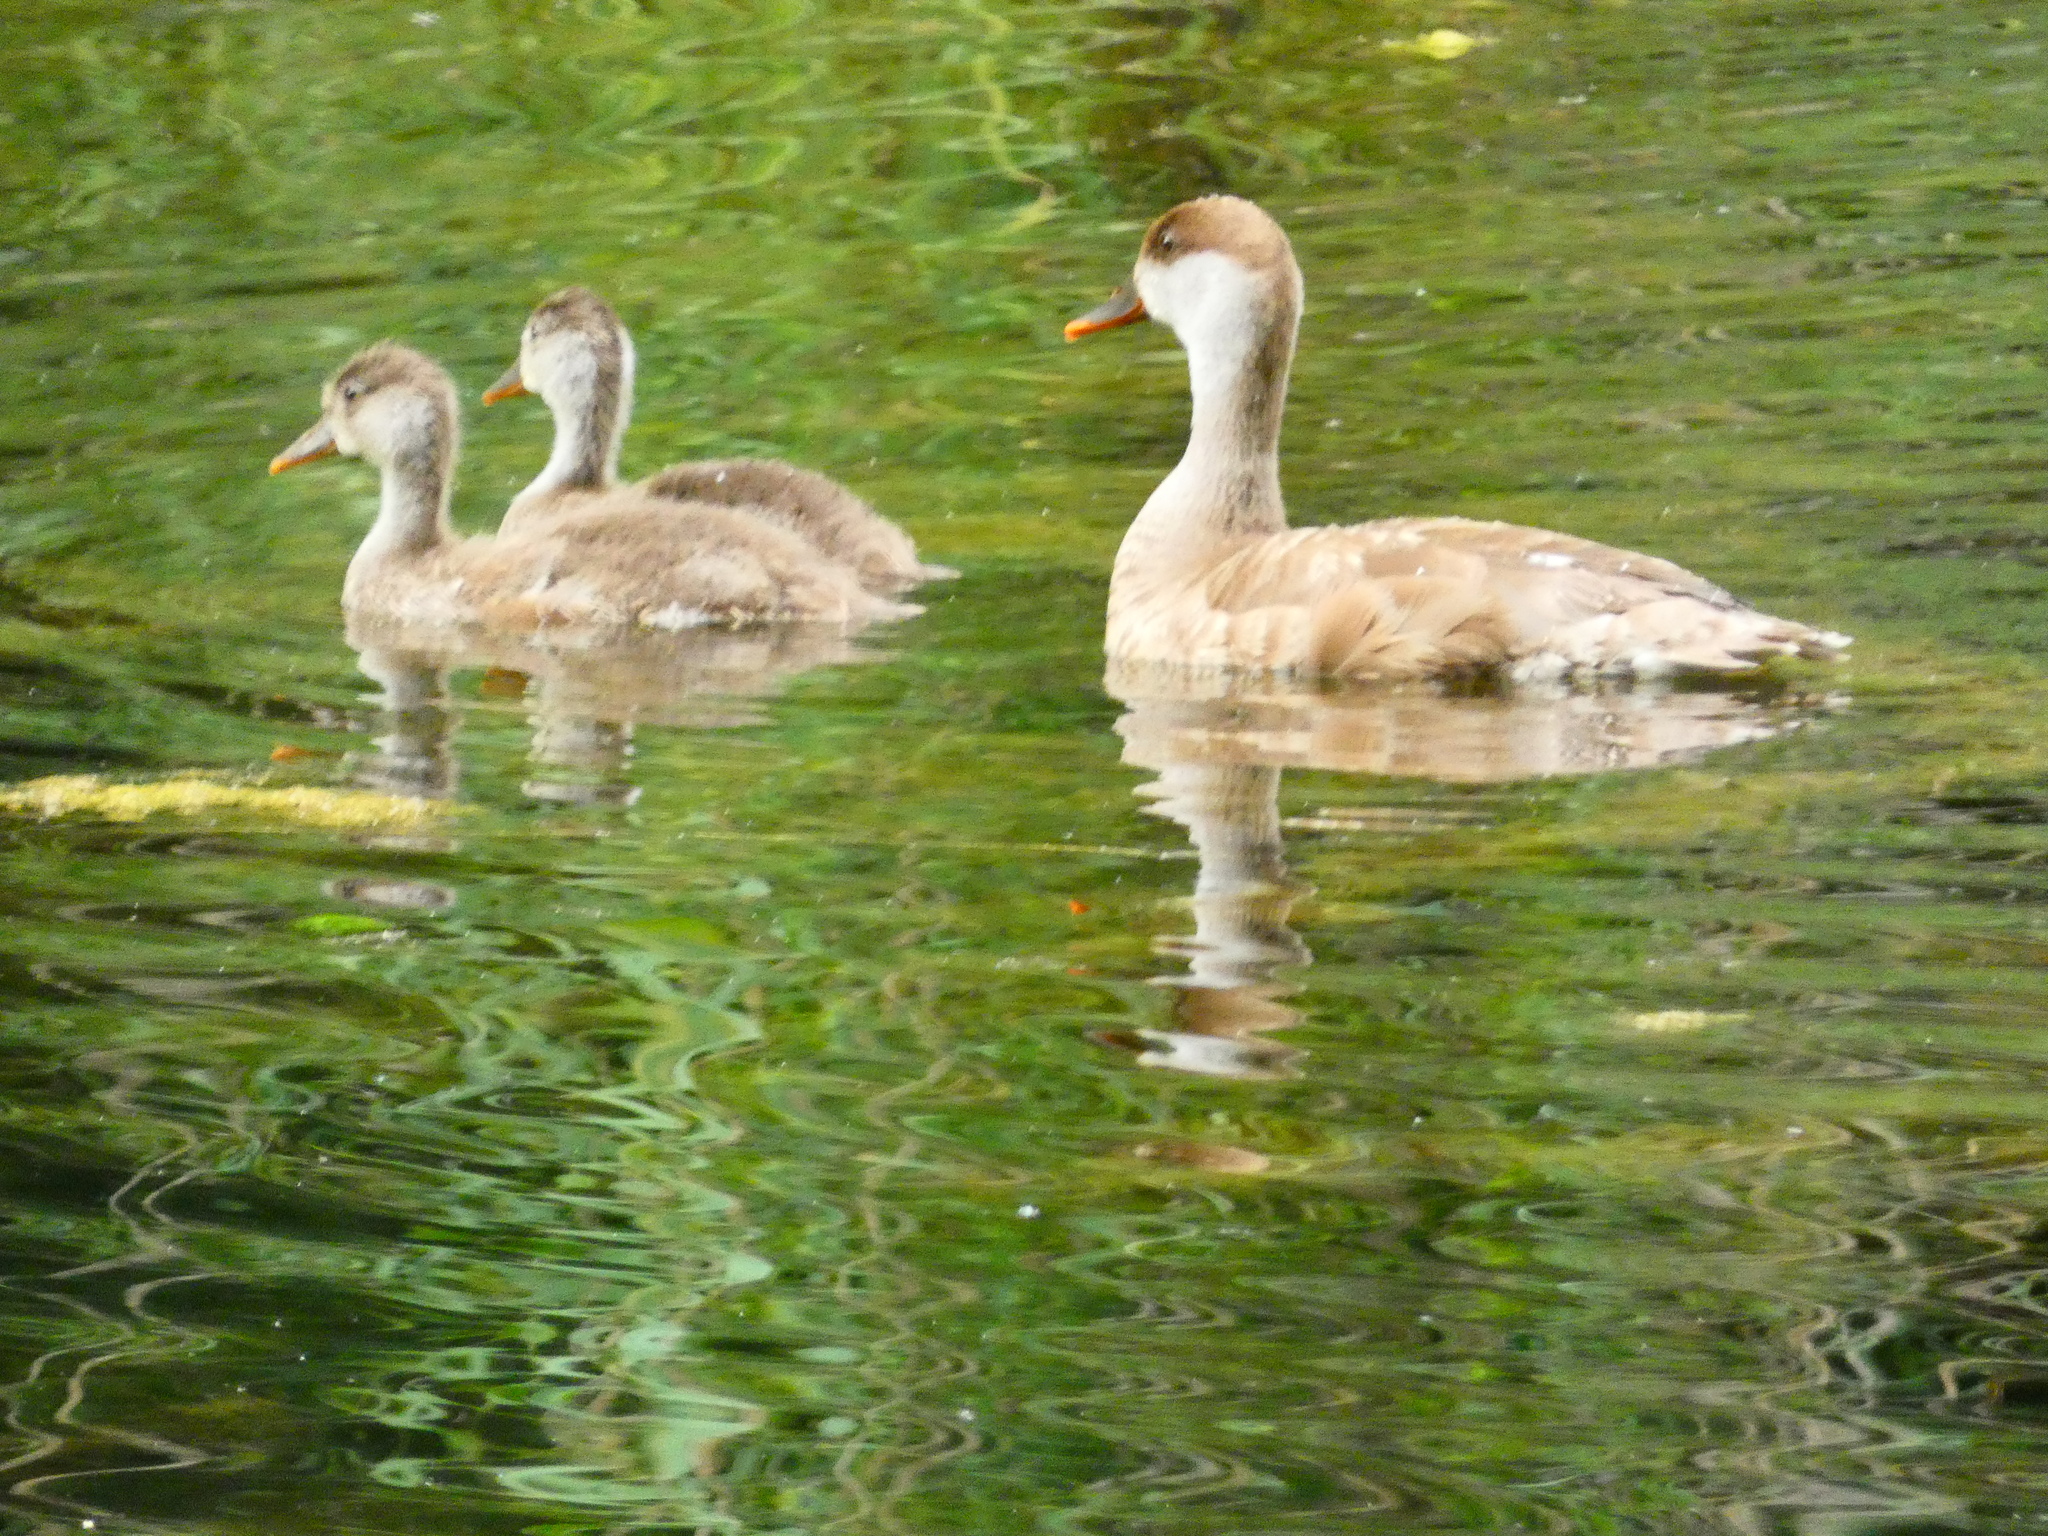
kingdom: Animalia
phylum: Chordata
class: Aves
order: Anseriformes
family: Anatidae
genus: Netta
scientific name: Netta rufina
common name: Red-crested pochard
